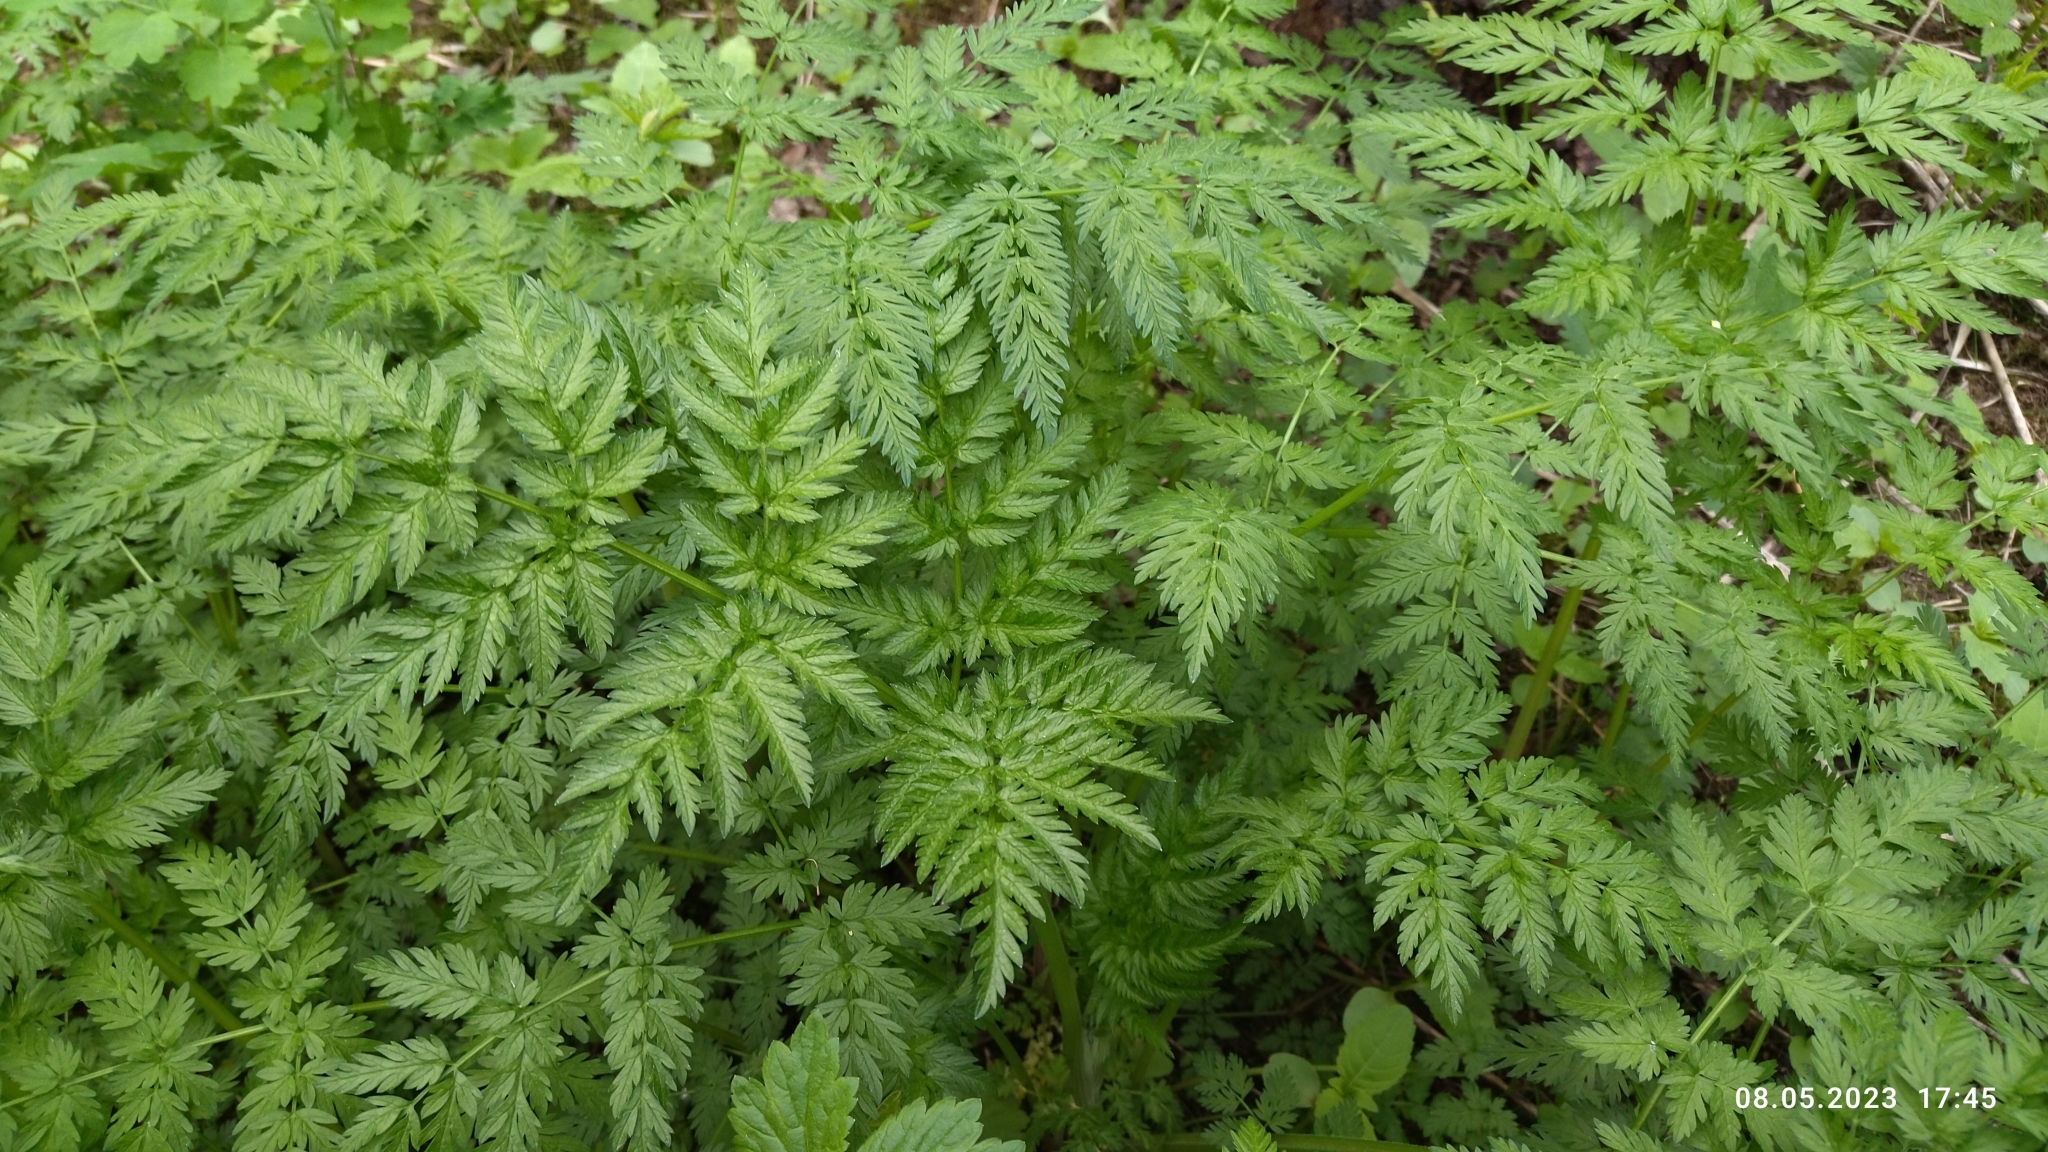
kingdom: Plantae
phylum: Tracheophyta
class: Magnoliopsida
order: Apiales
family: Apiaceae
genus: Anthriscus
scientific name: Anthriscus sylvestris
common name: Cow parsley
